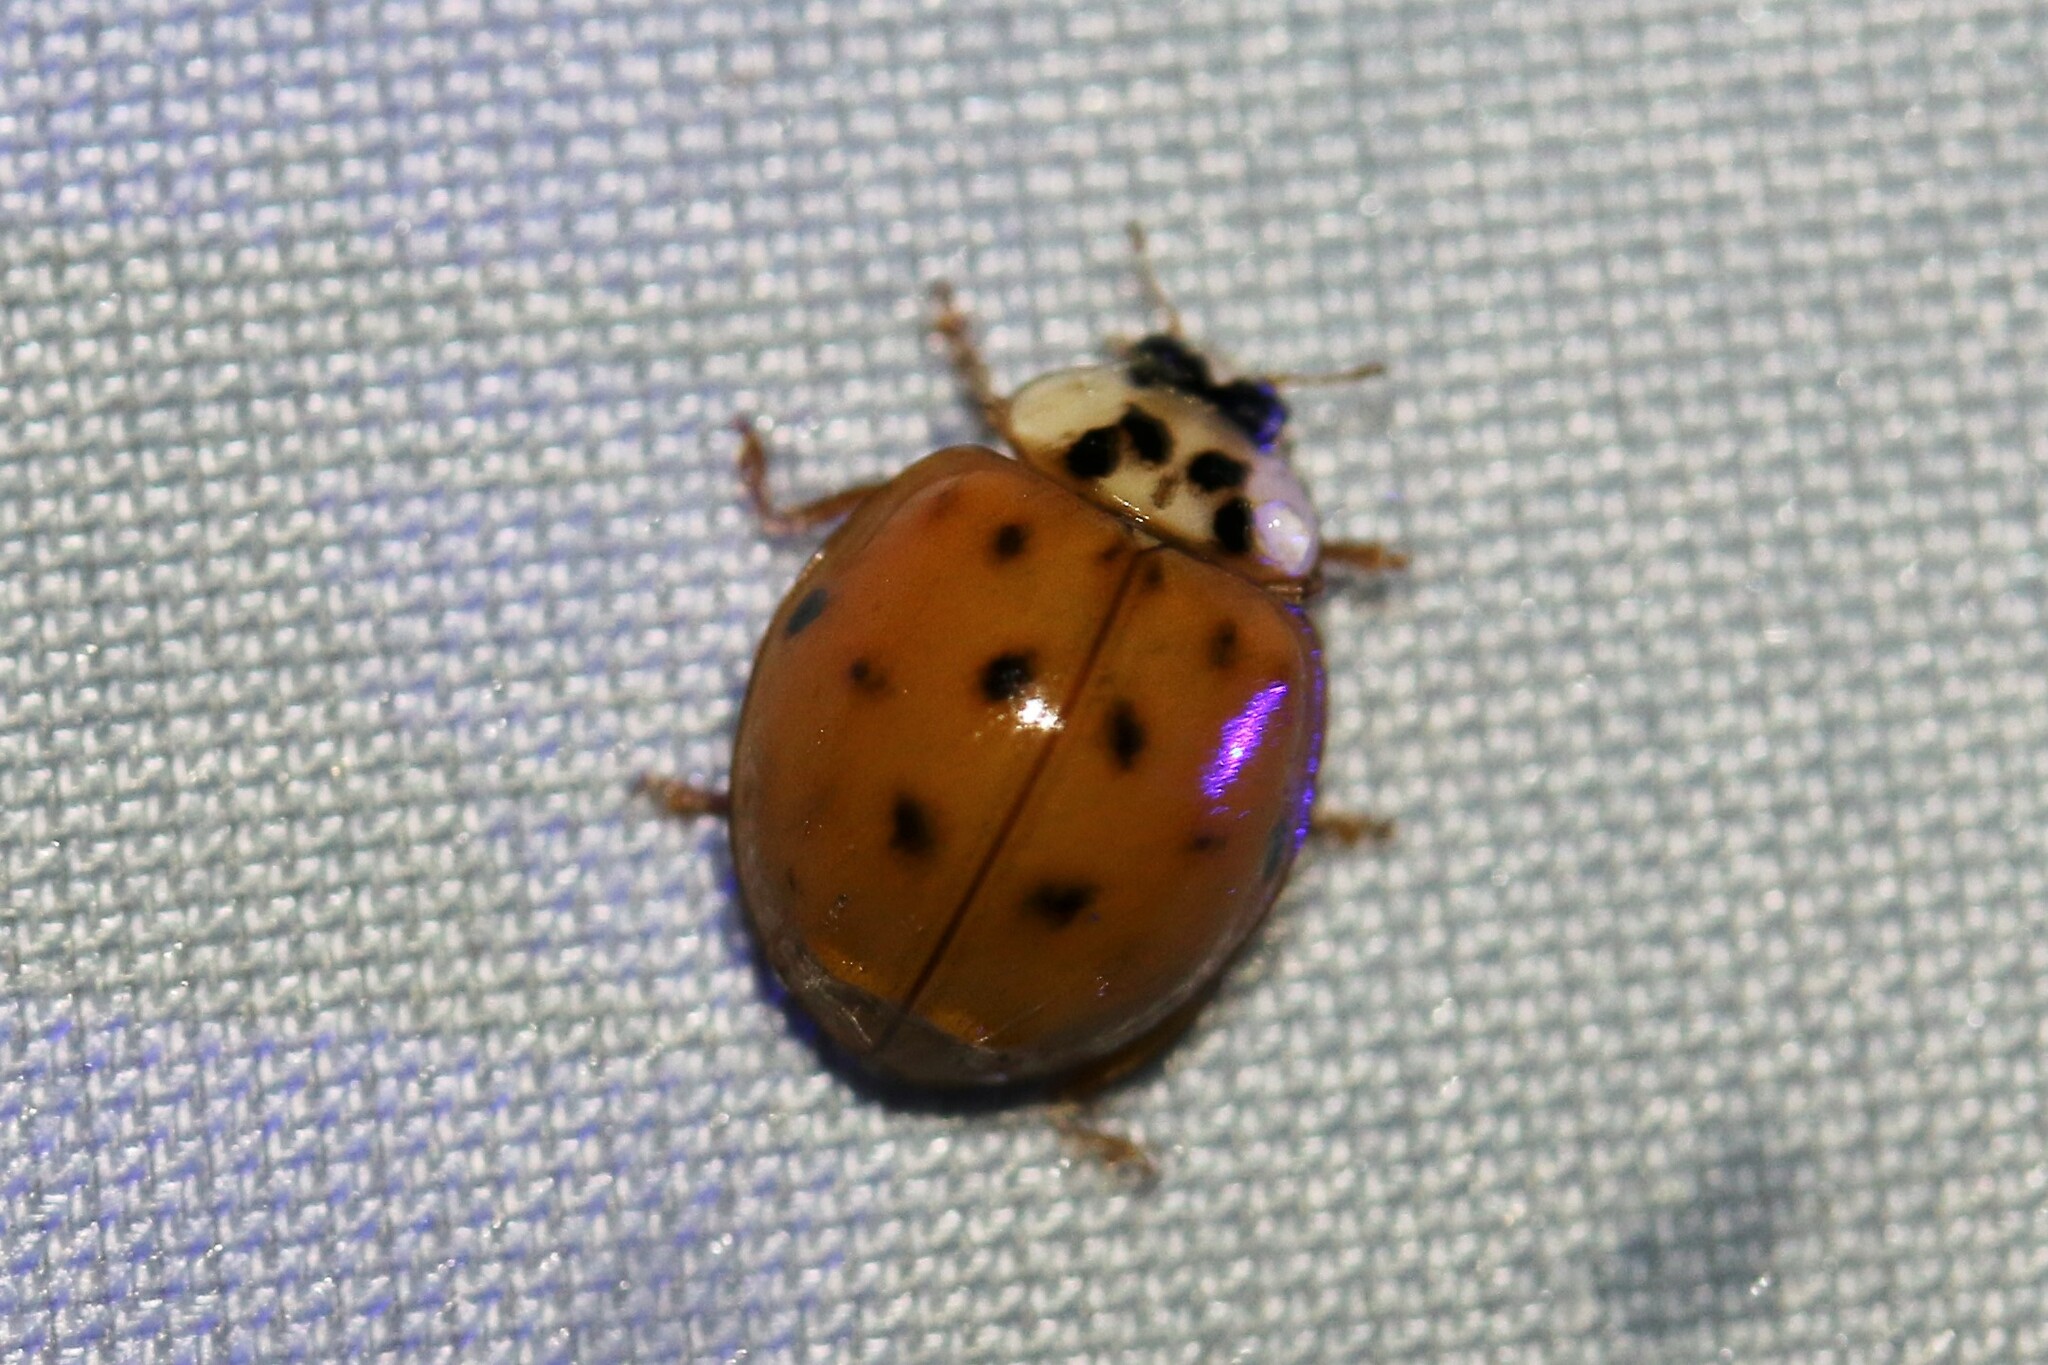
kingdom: Animalia
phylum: Arthropoda
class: Insecta
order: Coleoptera
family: Coccinellidae
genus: Harmonia
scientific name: Harmonia axyridis
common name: Harlequin ladybird
